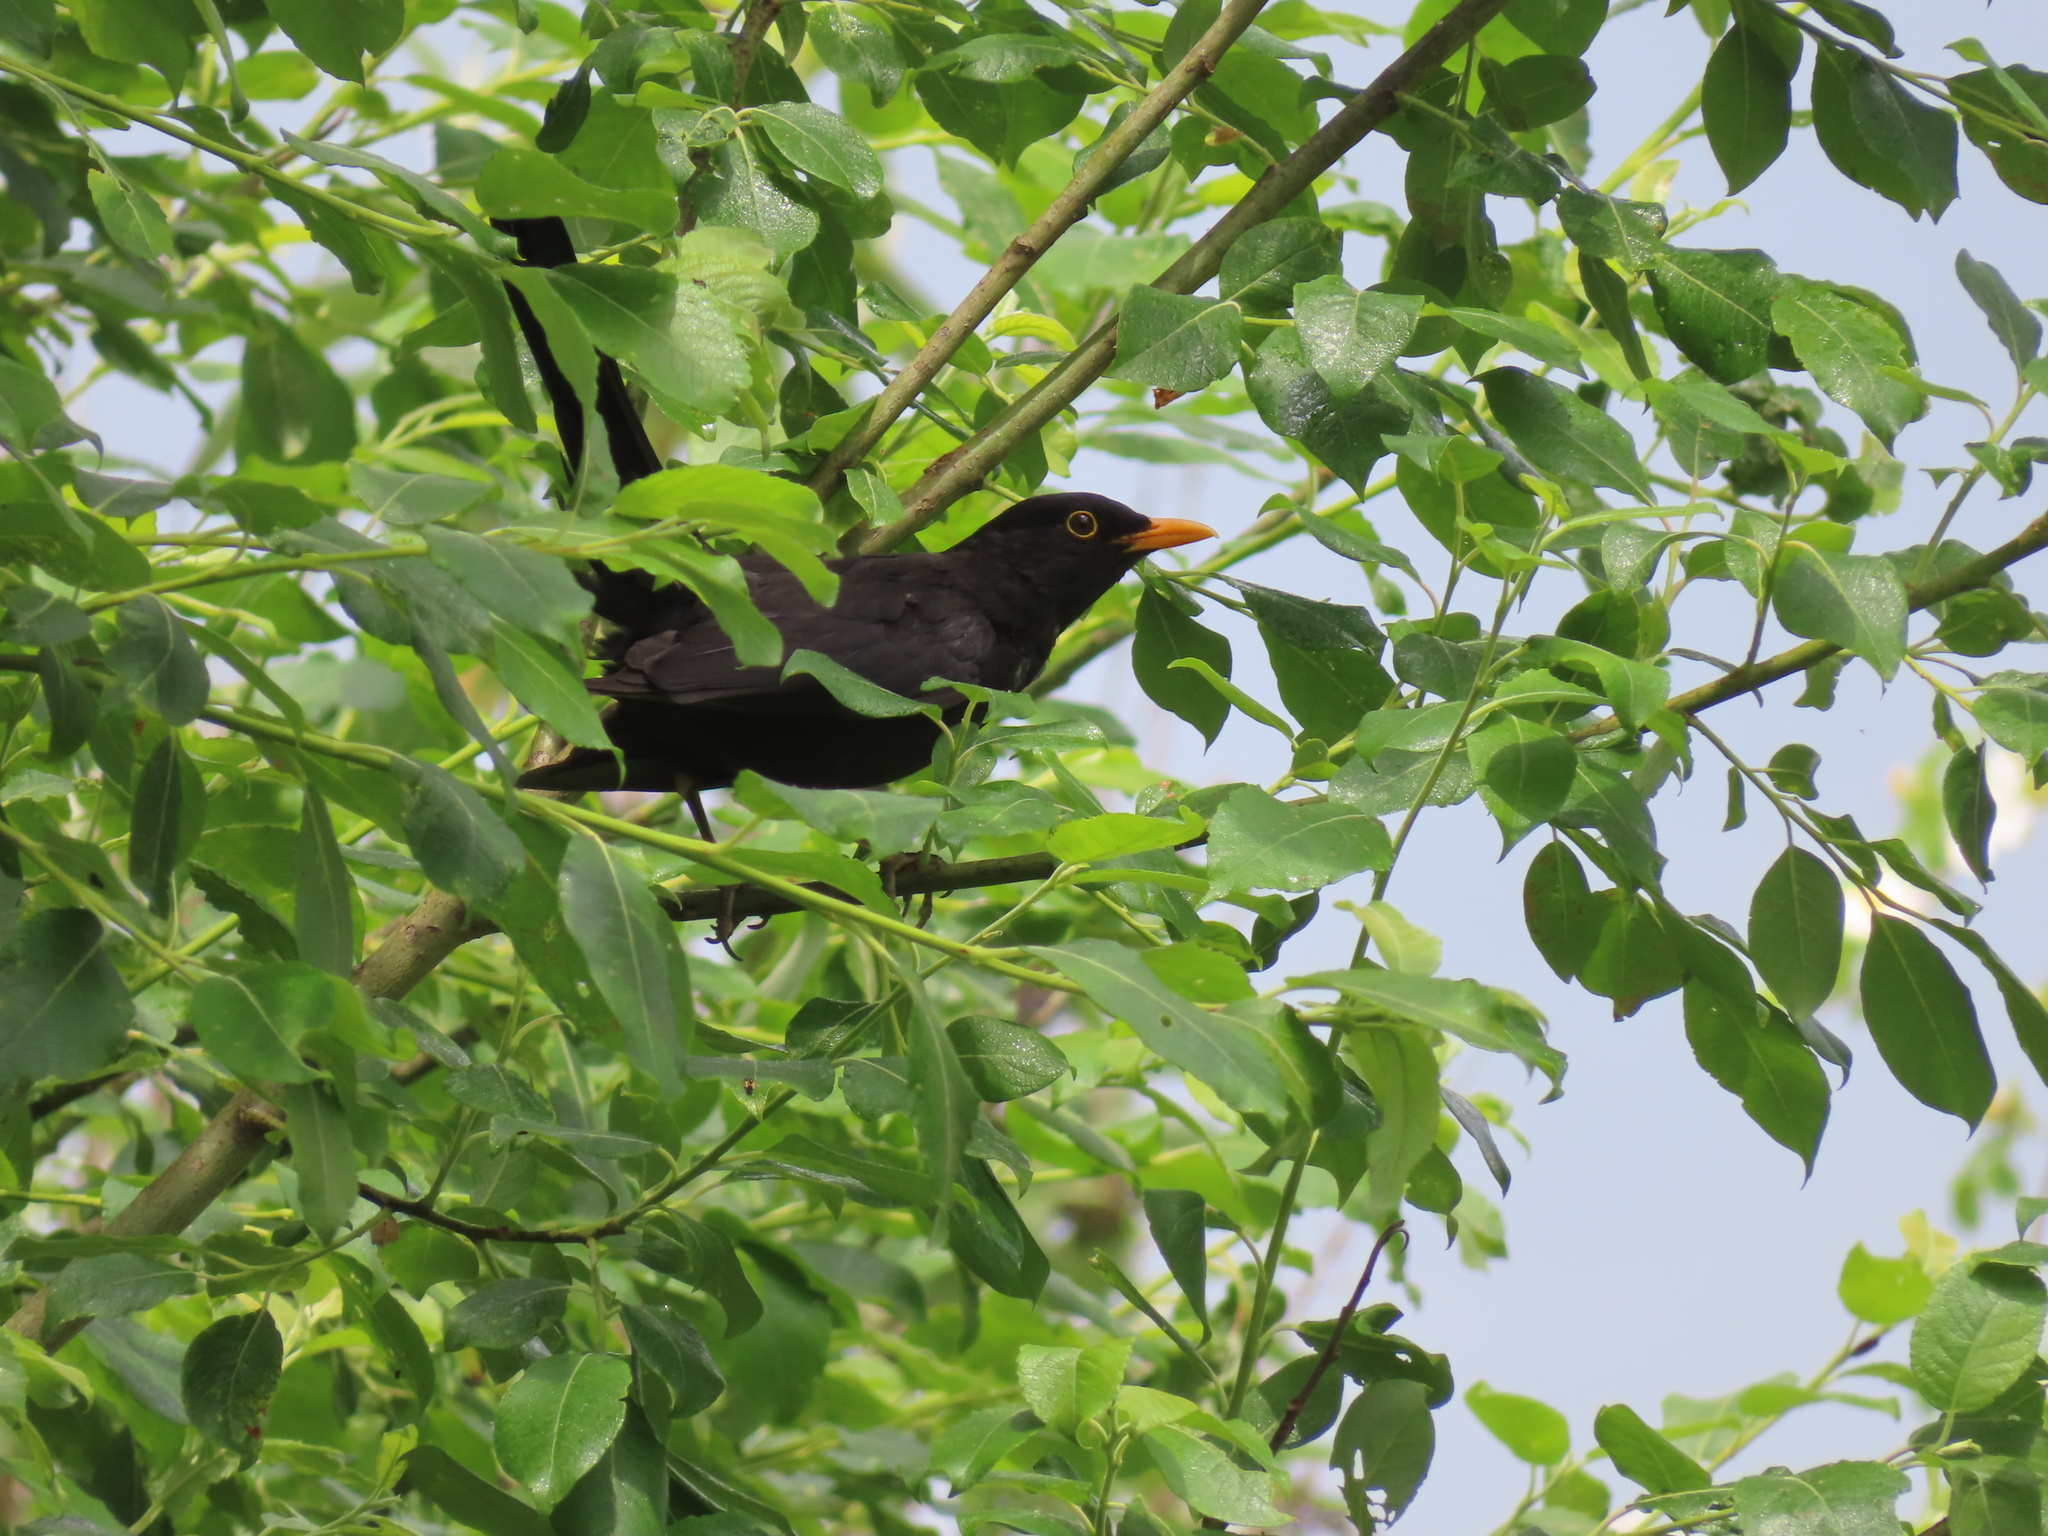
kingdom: Animalia
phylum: Chordata
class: Aves
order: Passeriformes
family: Turdidae
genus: Turdus
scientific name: Turdus merula
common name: Common blackbird
